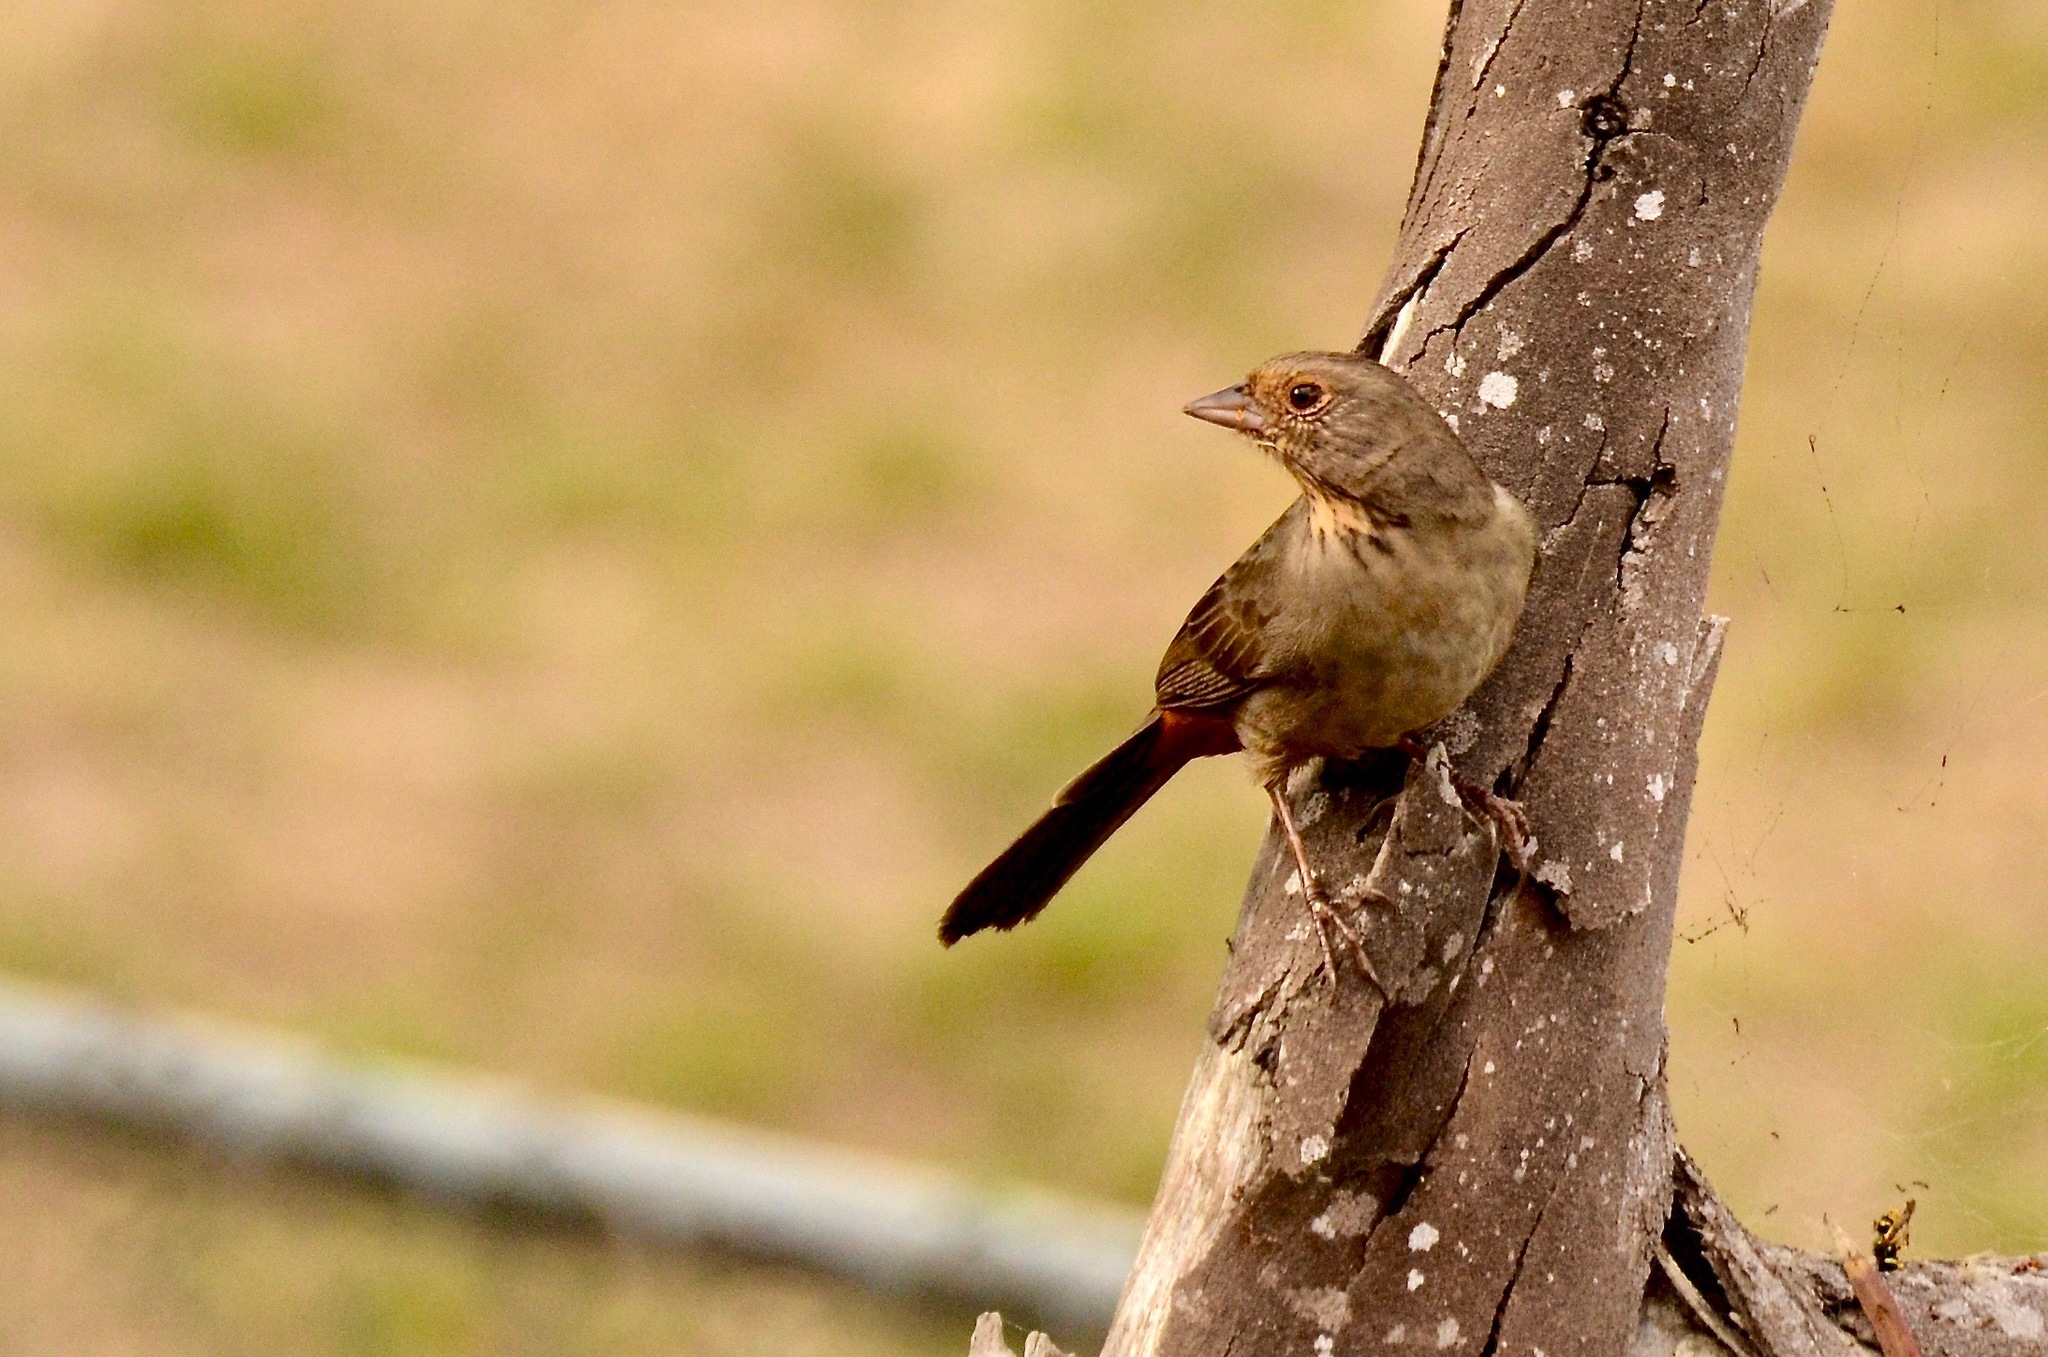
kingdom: Animalia
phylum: Chordata
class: Aves
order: Passeriformes
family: Passerellidae
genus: Melozone
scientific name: Melozone crissalis
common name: California towhee
